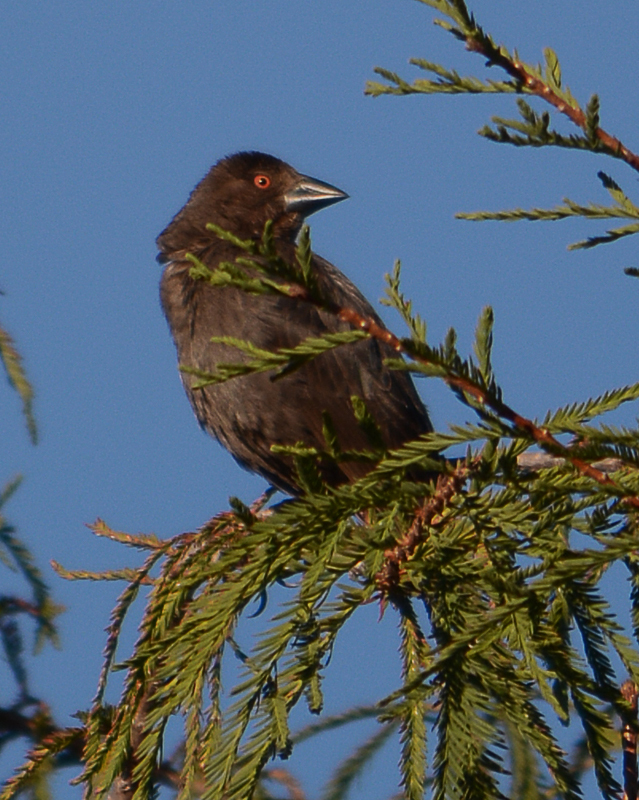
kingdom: Animalia
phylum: Chordata
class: Aves
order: Passeriformes
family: Icteridae
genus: Molothrus
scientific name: Molothrus aeneus
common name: Bronzed cowbird
